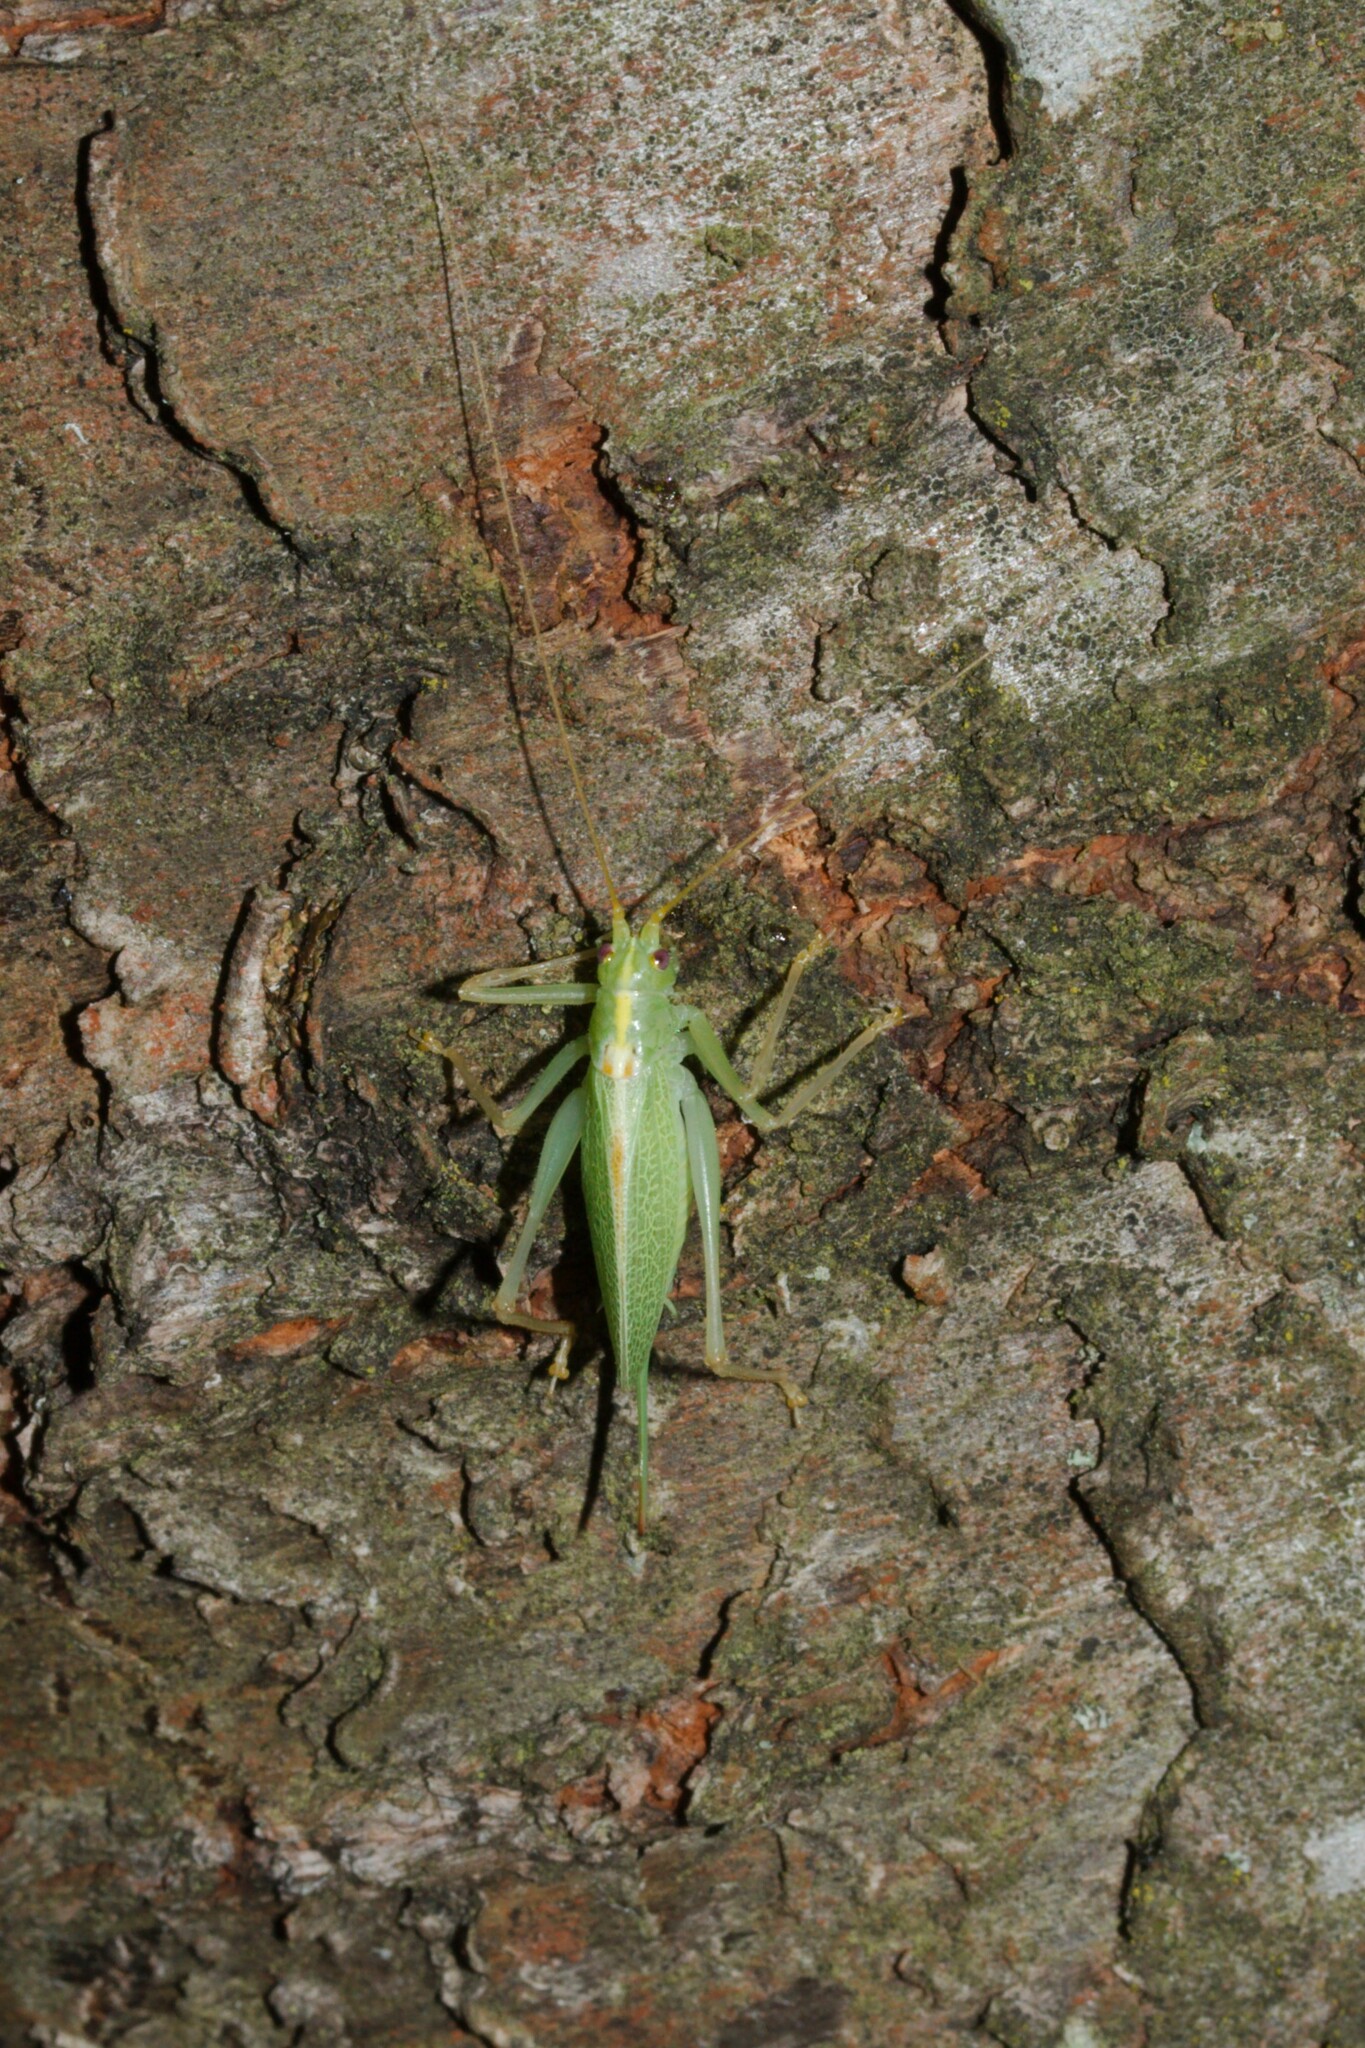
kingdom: Animalia
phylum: Arthropoda
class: Insecta
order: Orthoptera
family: Tettigoniidae
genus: Meconema
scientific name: Meconema thalassinum
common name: Oak bush-cricket
